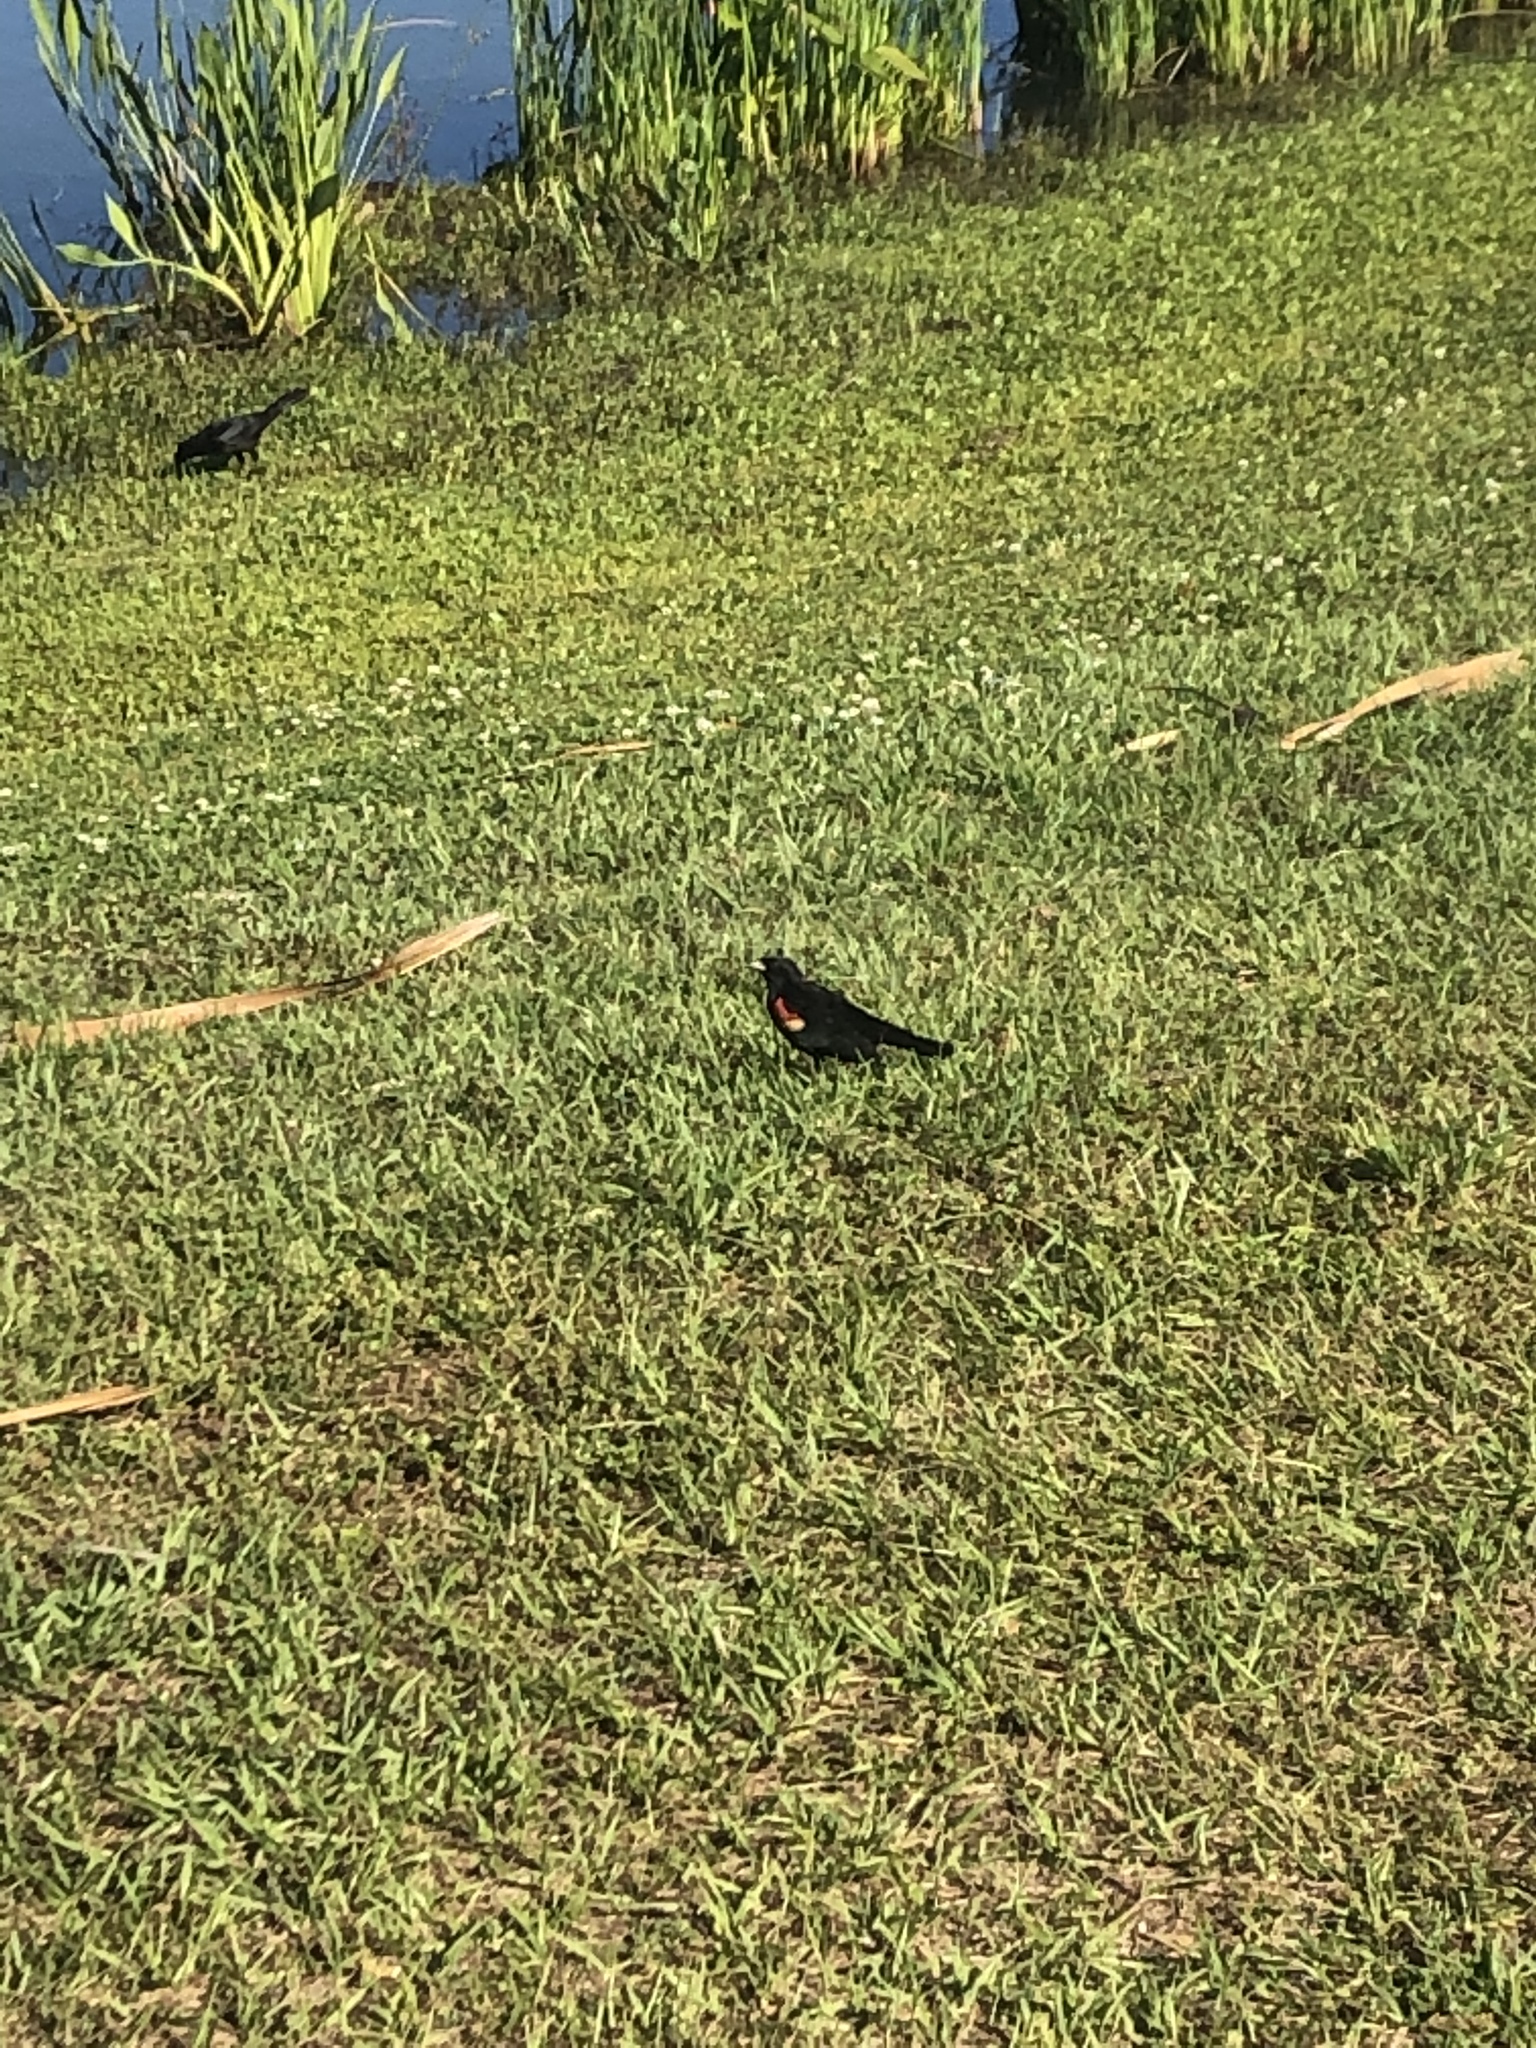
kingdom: Animalia
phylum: Chordata
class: Aves
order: Passeriformes
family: Icteridae
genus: Agelaius
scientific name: Agelaius phoeniceus
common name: Red-winged blackbird
